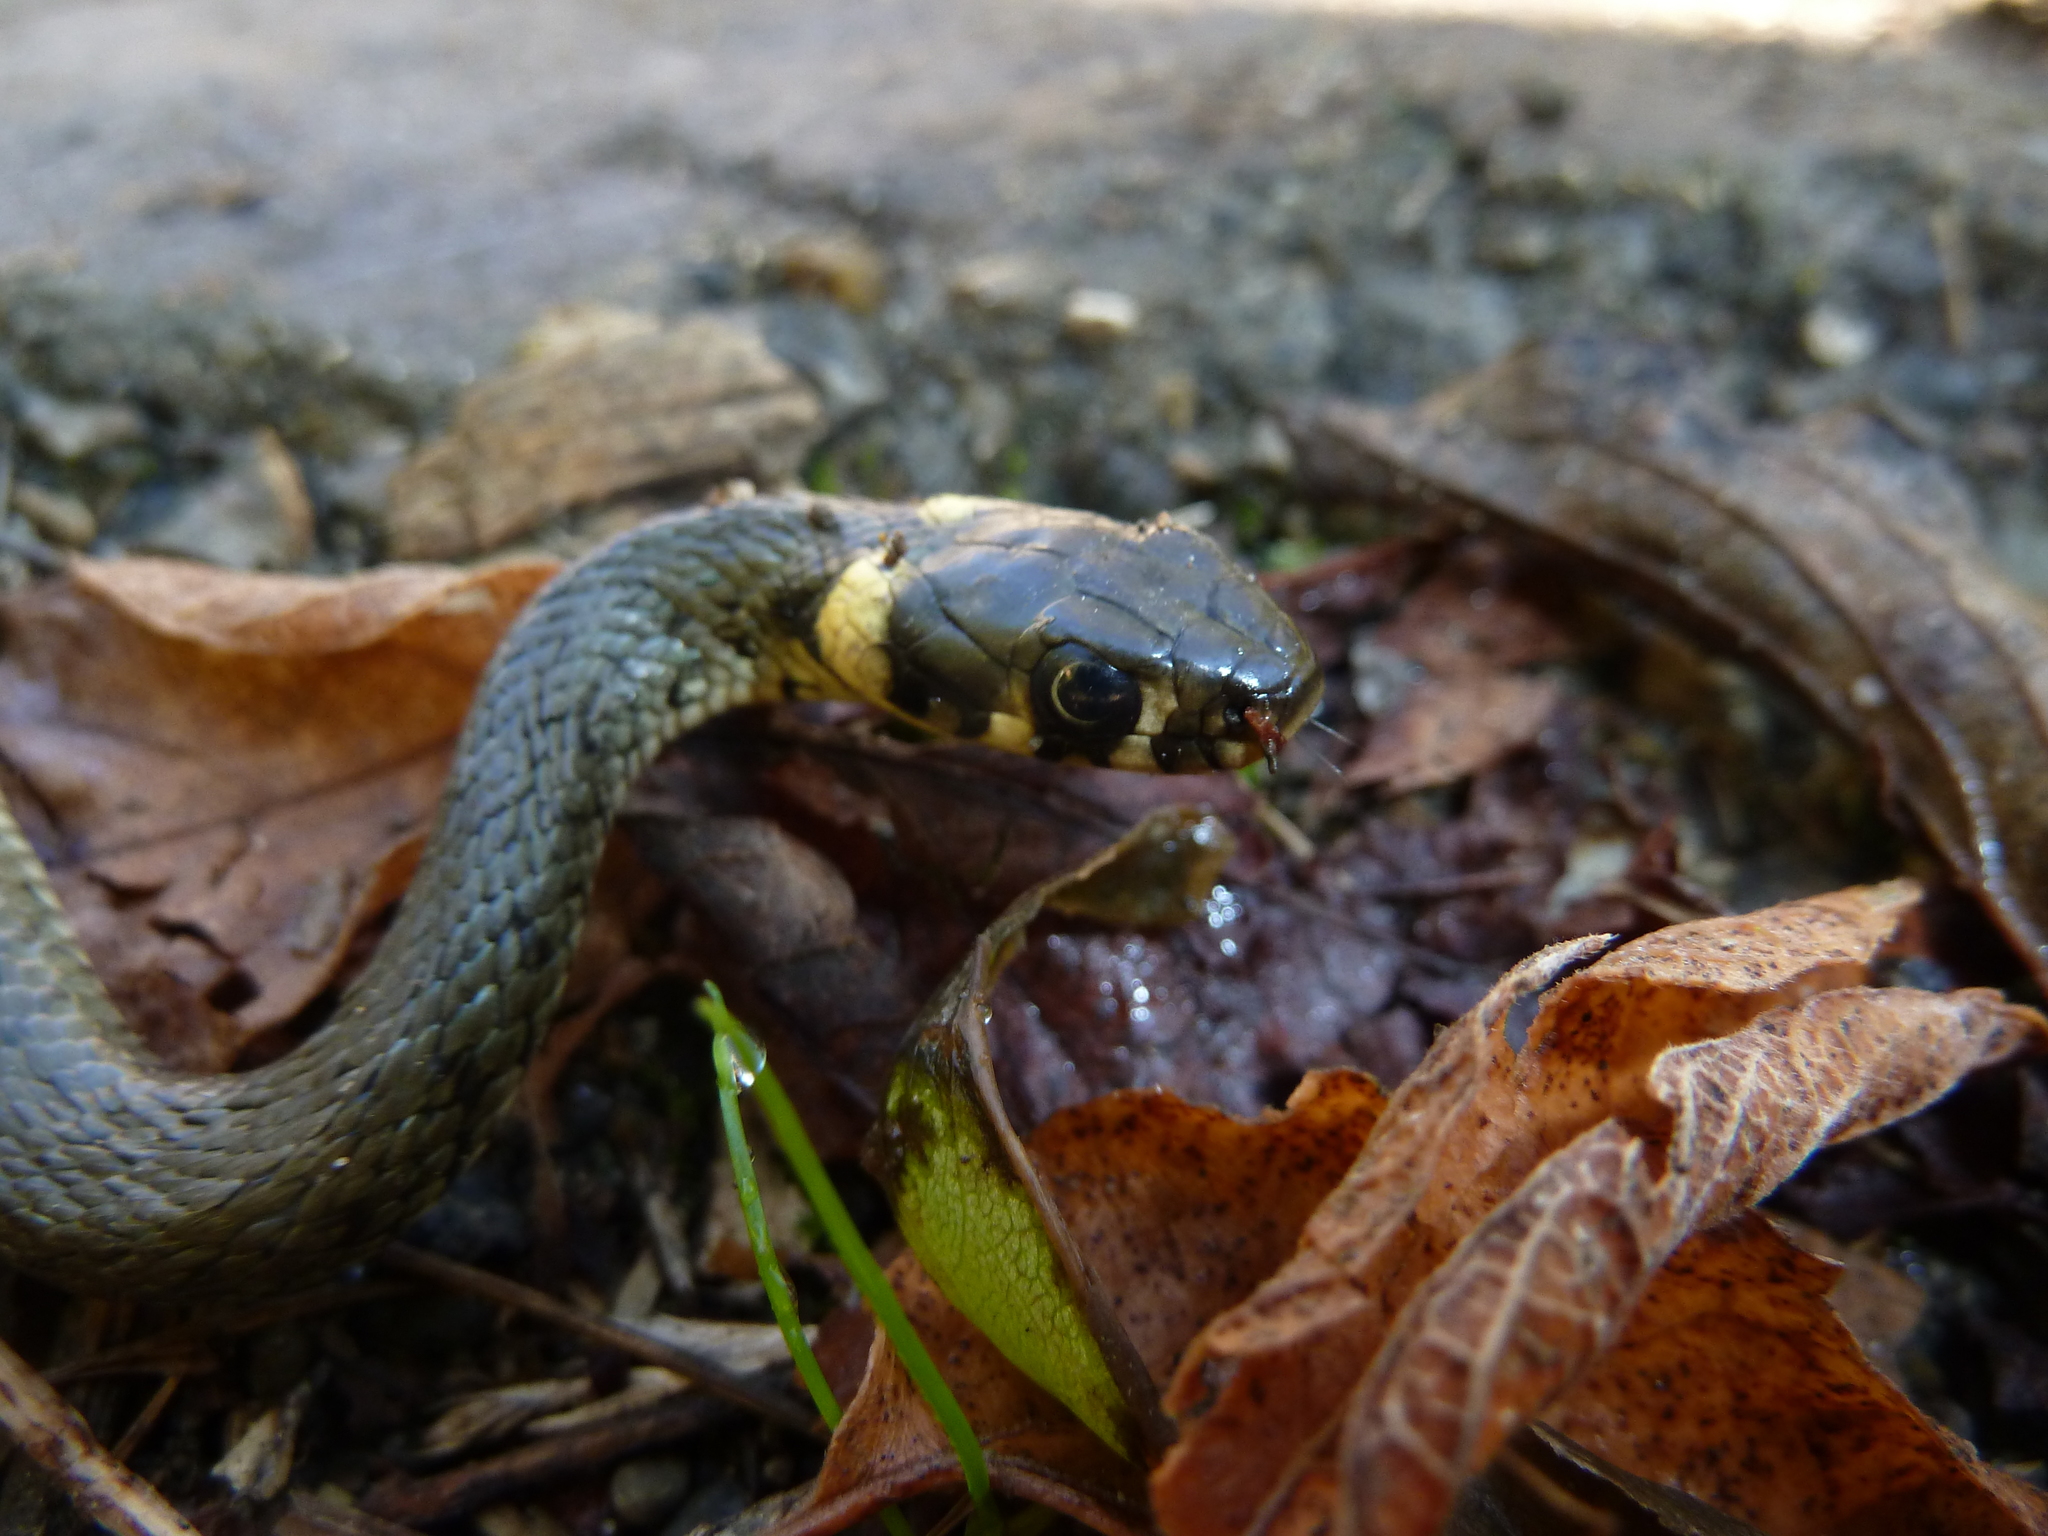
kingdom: Animalia
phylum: Chordata
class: Squamata
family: Colubridae
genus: Natrix
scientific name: Natrix natrix
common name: Grass snake
